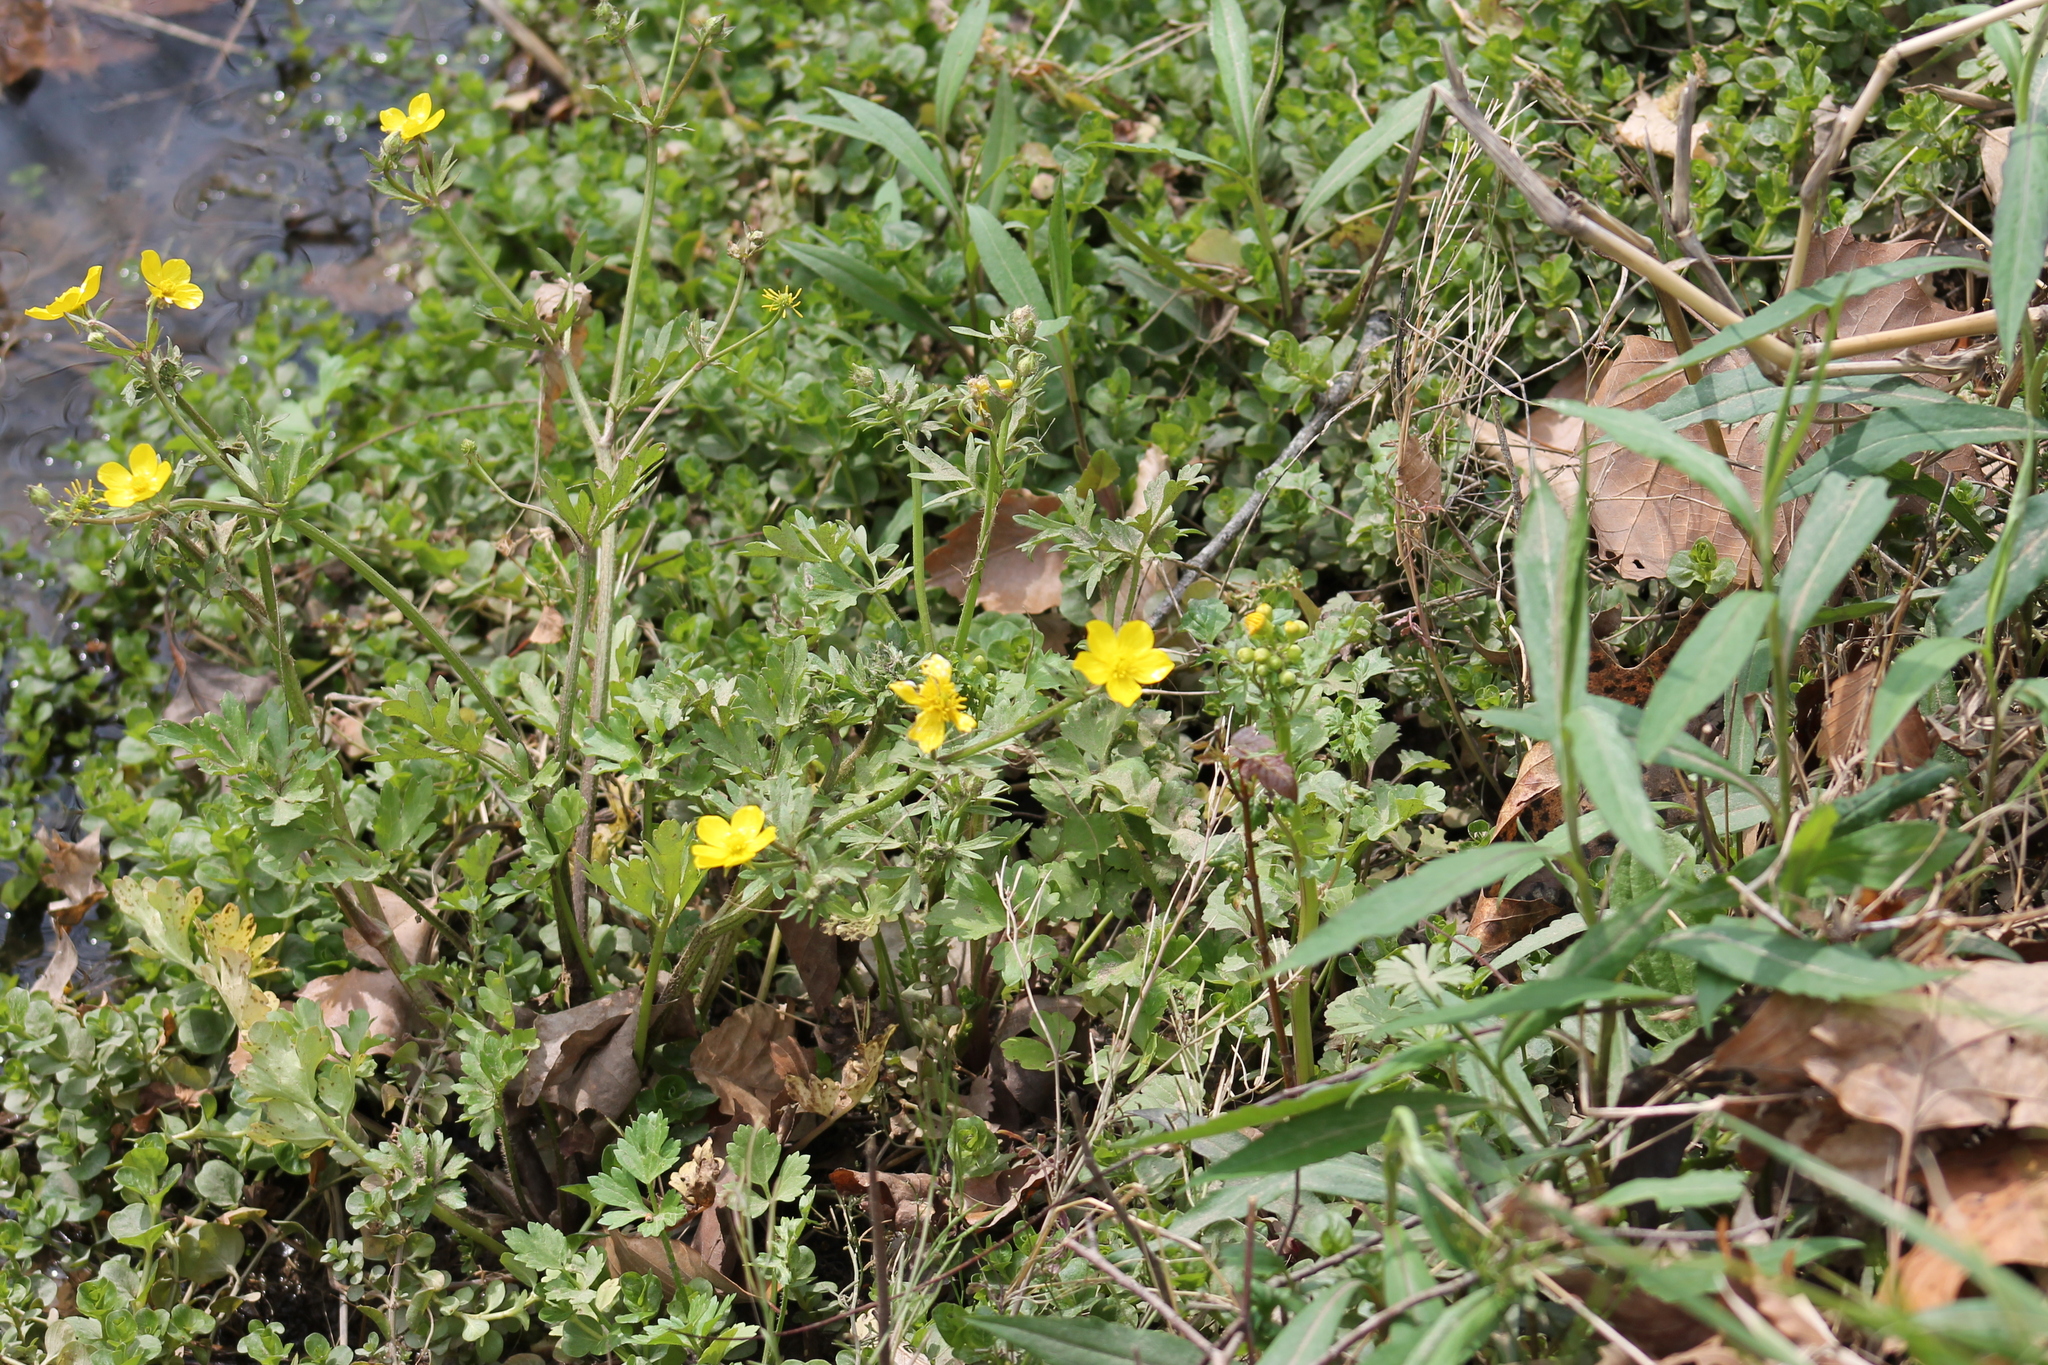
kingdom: Plantae
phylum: Tracheophyta
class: Magnoliopsida
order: Ranunculales
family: Ranunculaceae
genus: Ranunculus
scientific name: Ranunculus sardous
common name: Hairy buttercup
